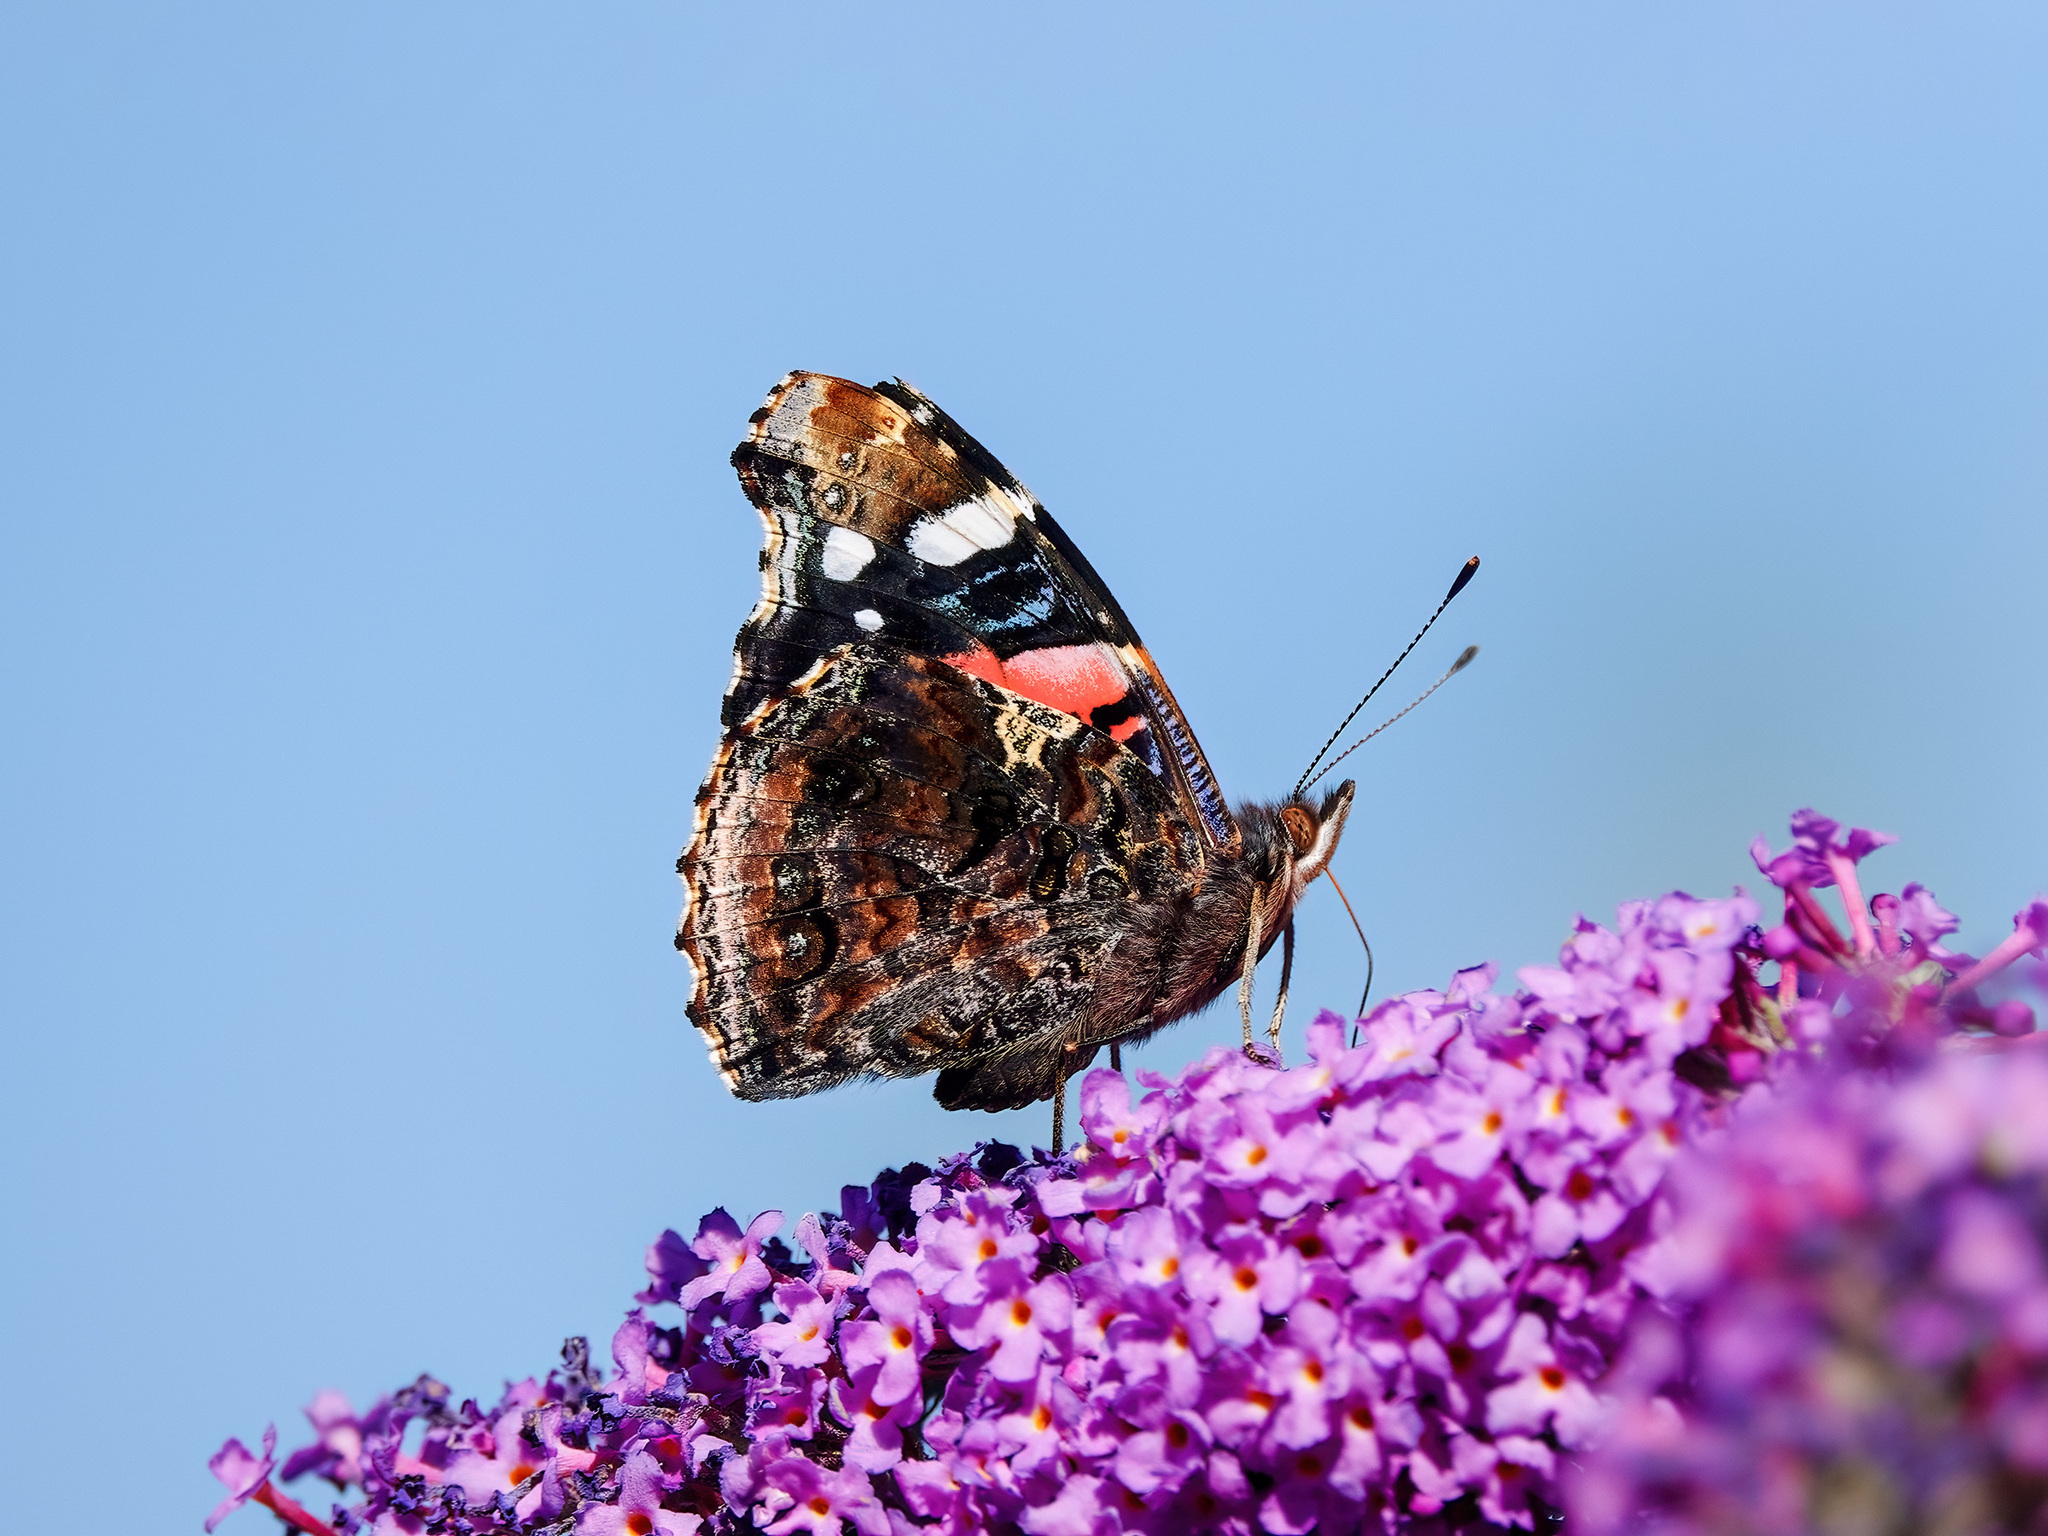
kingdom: Animalia
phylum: Arthropoda
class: Insecta
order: Lepidoptera
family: Nymphalidae
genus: Vanessa
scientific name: Vanessa atalanta
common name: Red admiral
